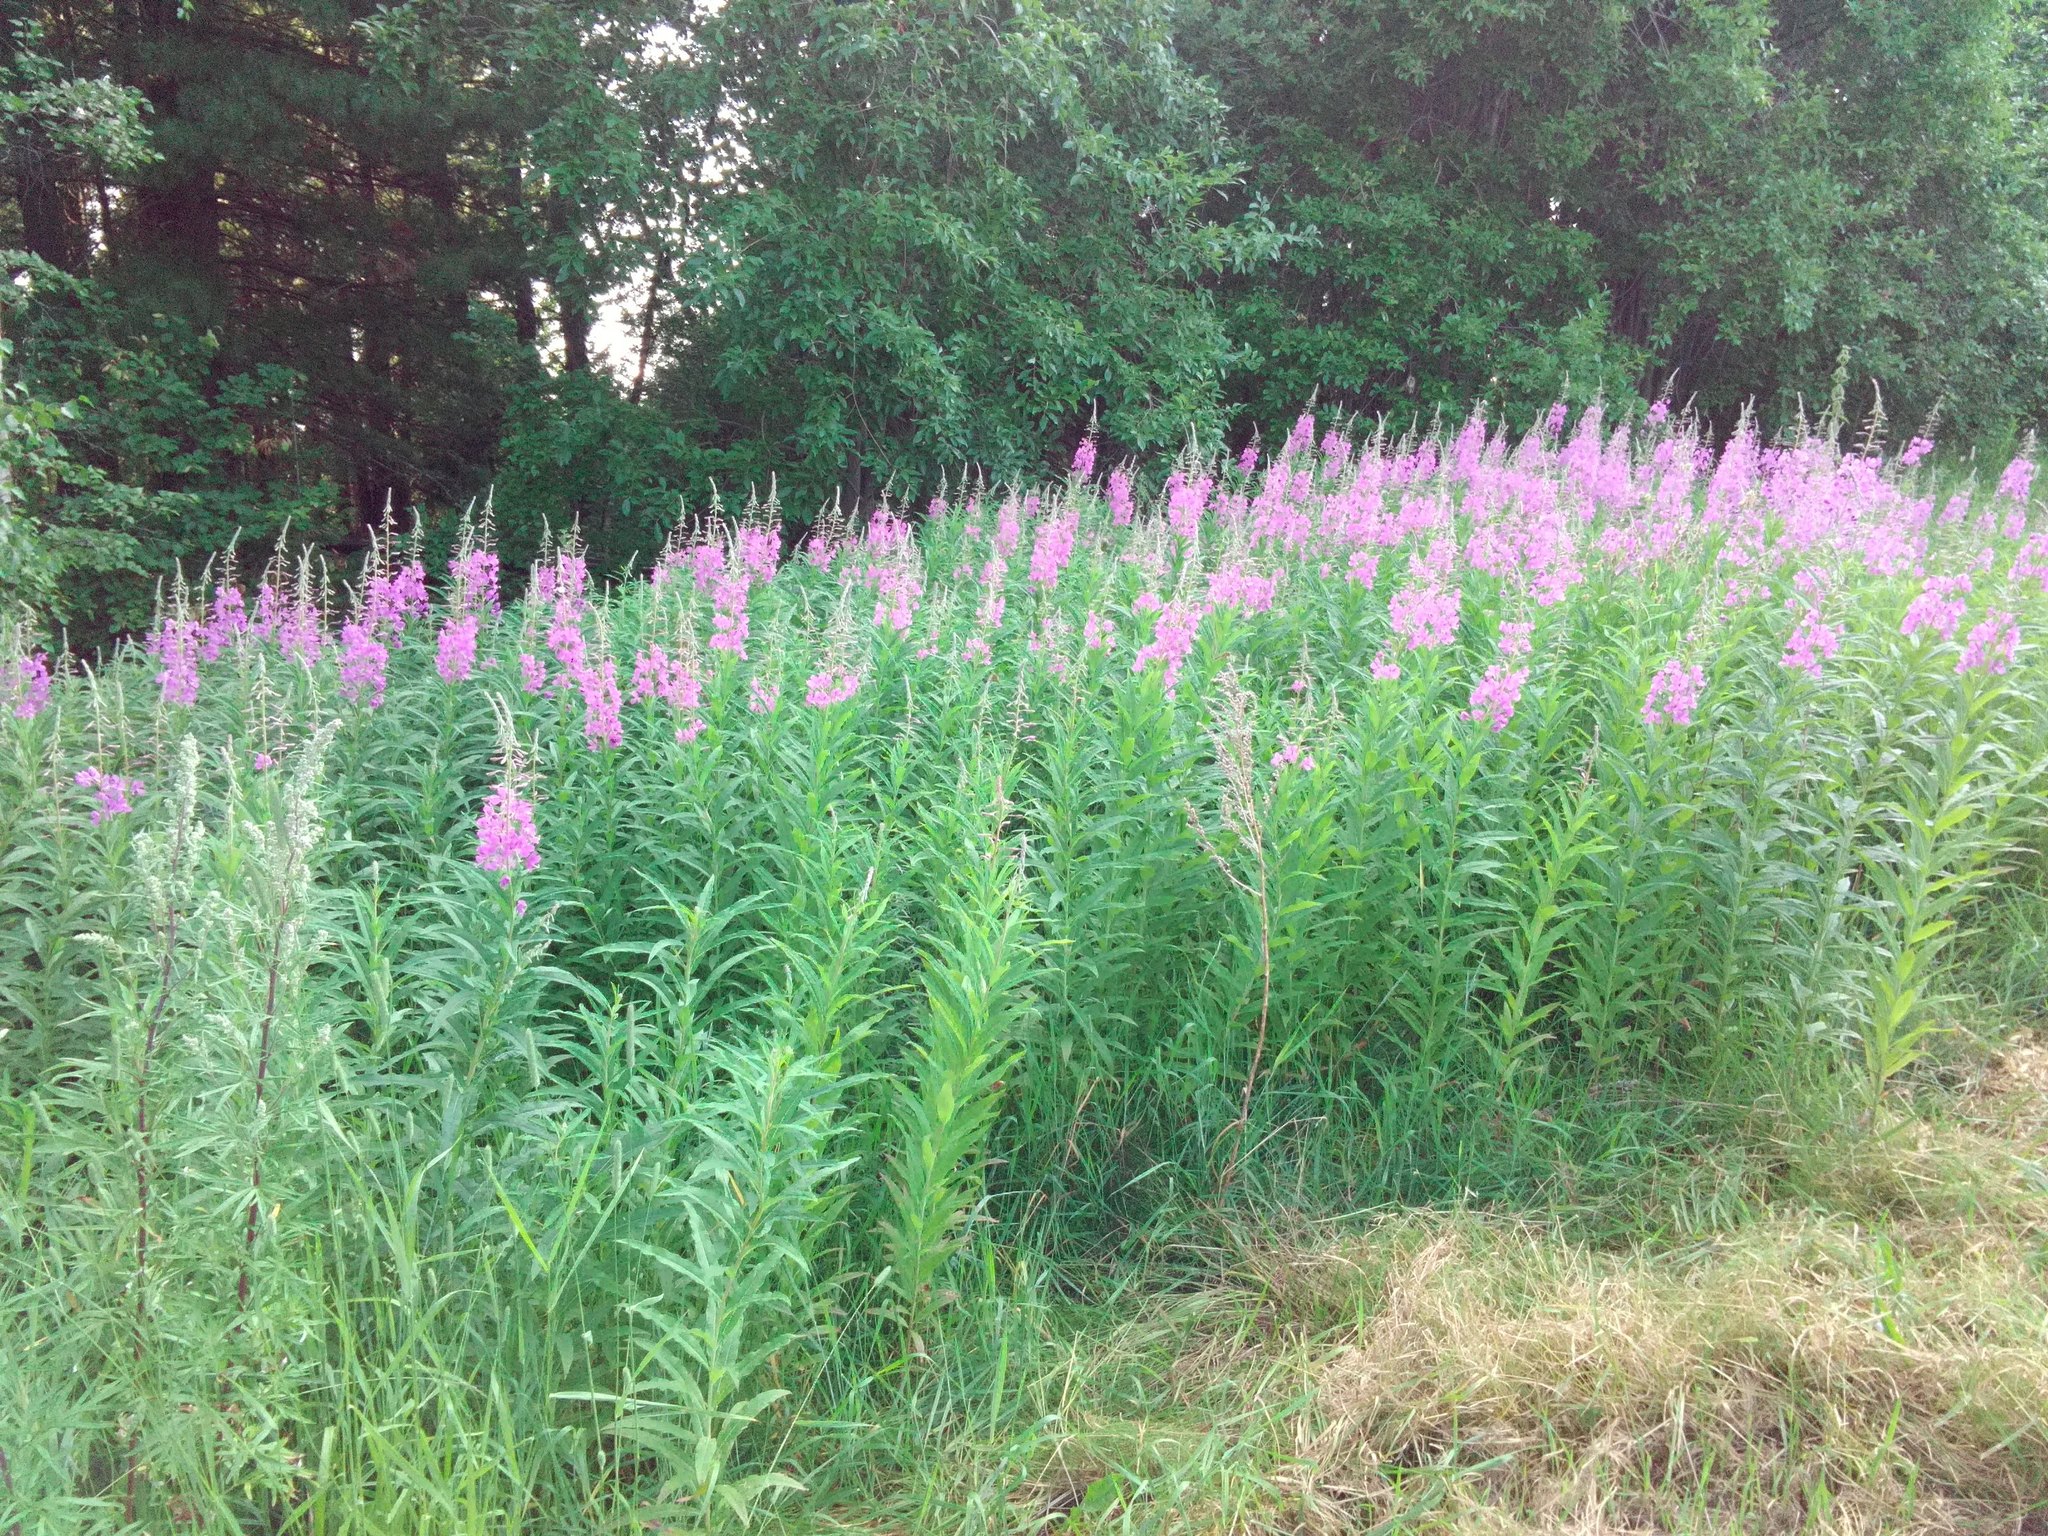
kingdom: Plantae
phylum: Tracheophyta
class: Magnoliopsida
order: Myrtales
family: Onagraceae
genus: Chamaenerion
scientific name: Chamaenerion angustifolium
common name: Fireweed
